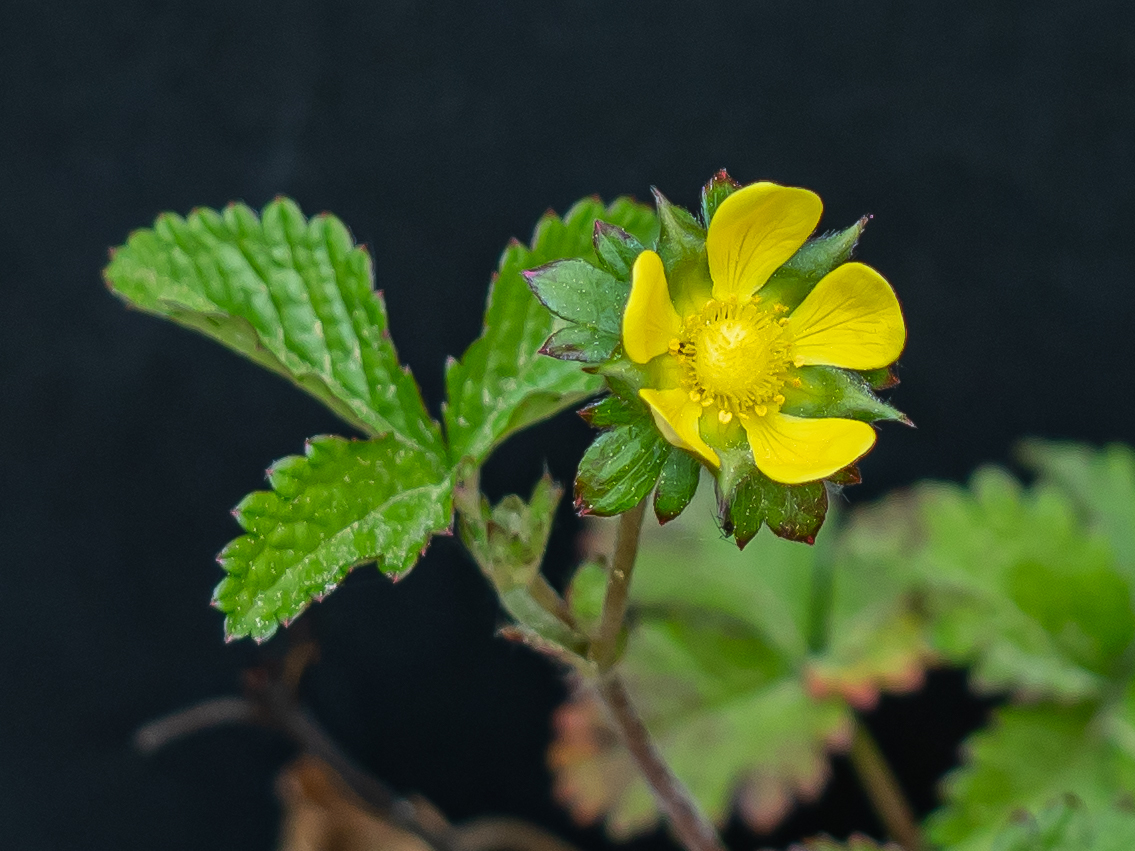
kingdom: Plantae
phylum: Tracheophyta
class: Magnoliopsida
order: Rosales
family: Rosaceae
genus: Potentilla
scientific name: Potentilla indica
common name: Yellow-flowered strawberry
